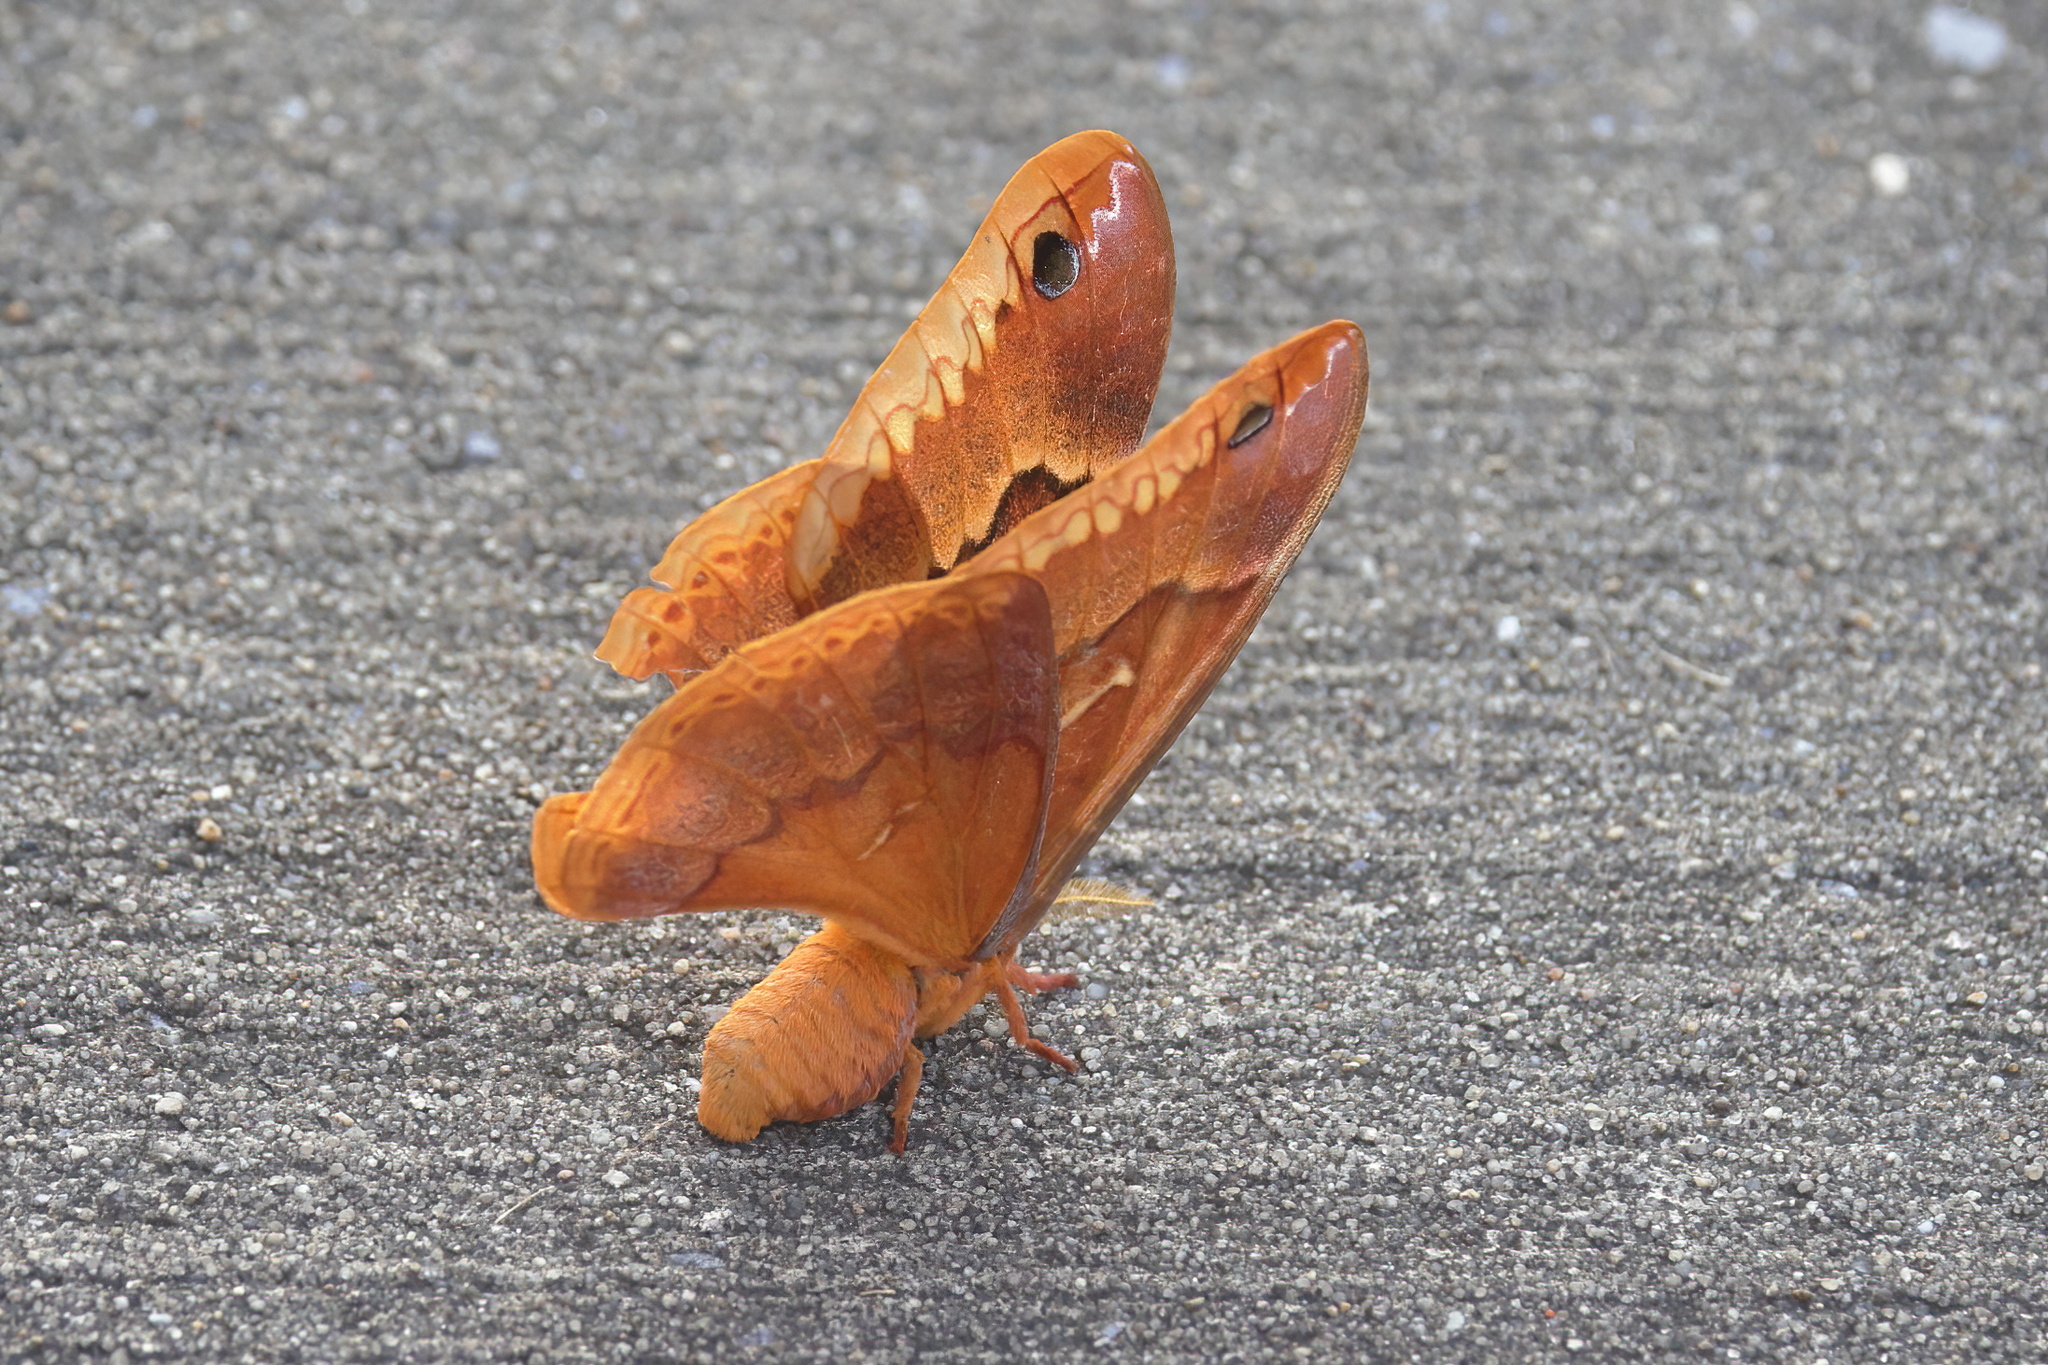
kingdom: Animalia
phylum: Arthropoda
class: Insecta
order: Lepidoptera
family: Saturniidae
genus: Callosamia
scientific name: Callosamia securifera
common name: Sweetbay silkmoth
